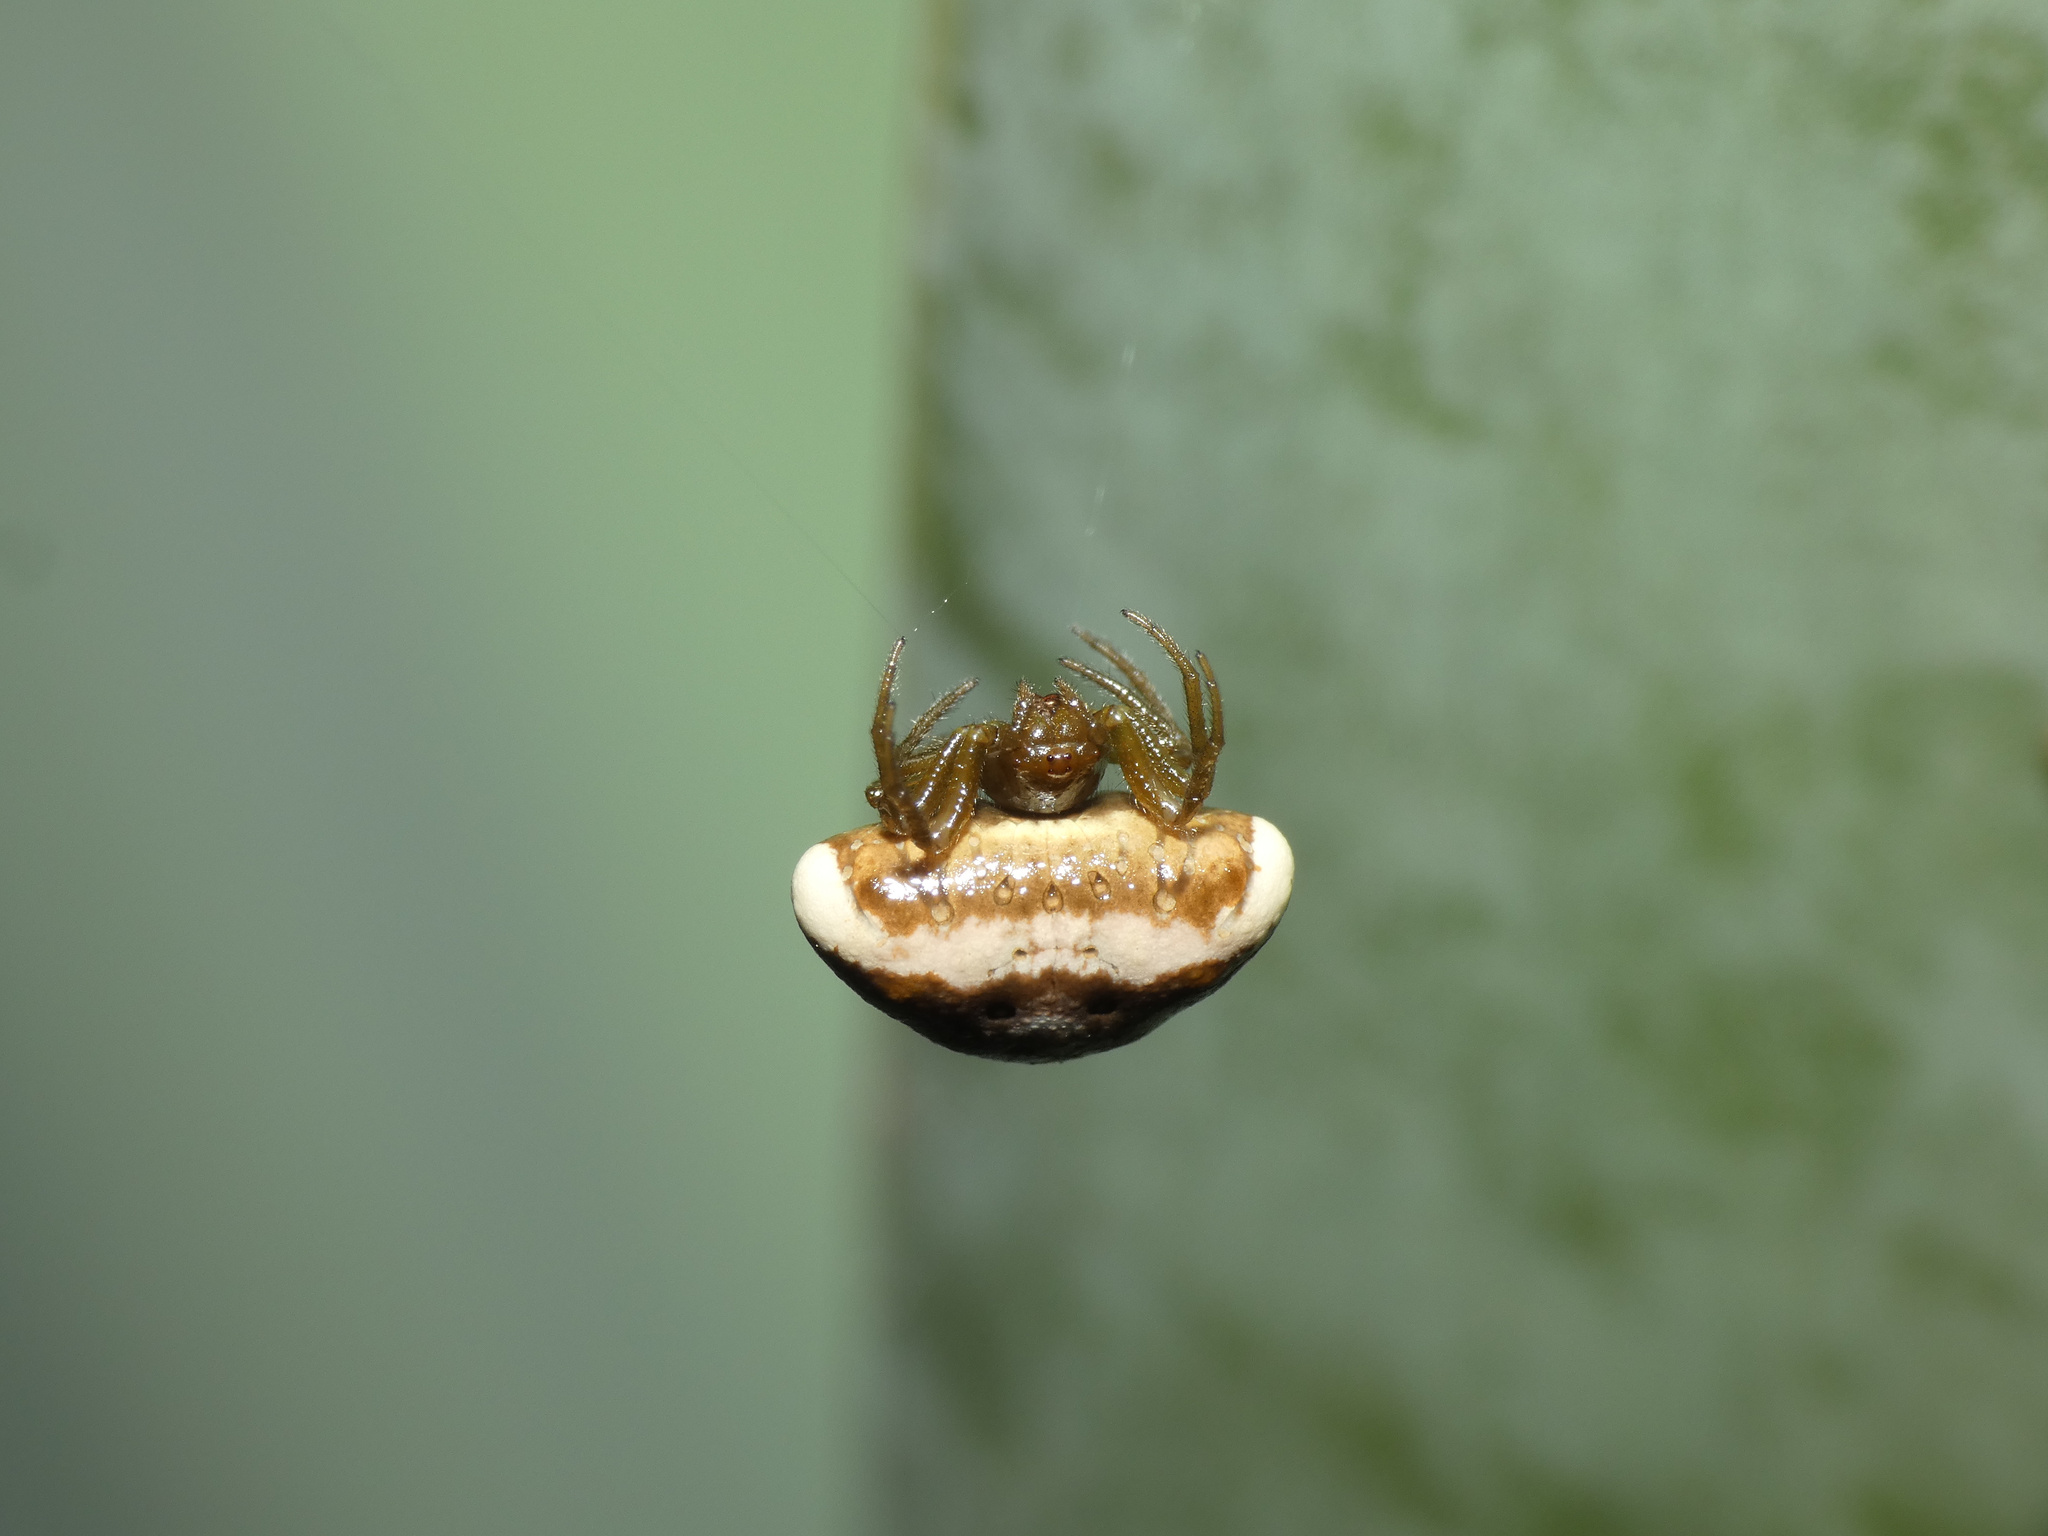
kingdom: Animalia
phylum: Arthropoda
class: Arachnida
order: Araneae
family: Araneidae
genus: Cyrtarachne
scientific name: Cyrtarachne ixoides
